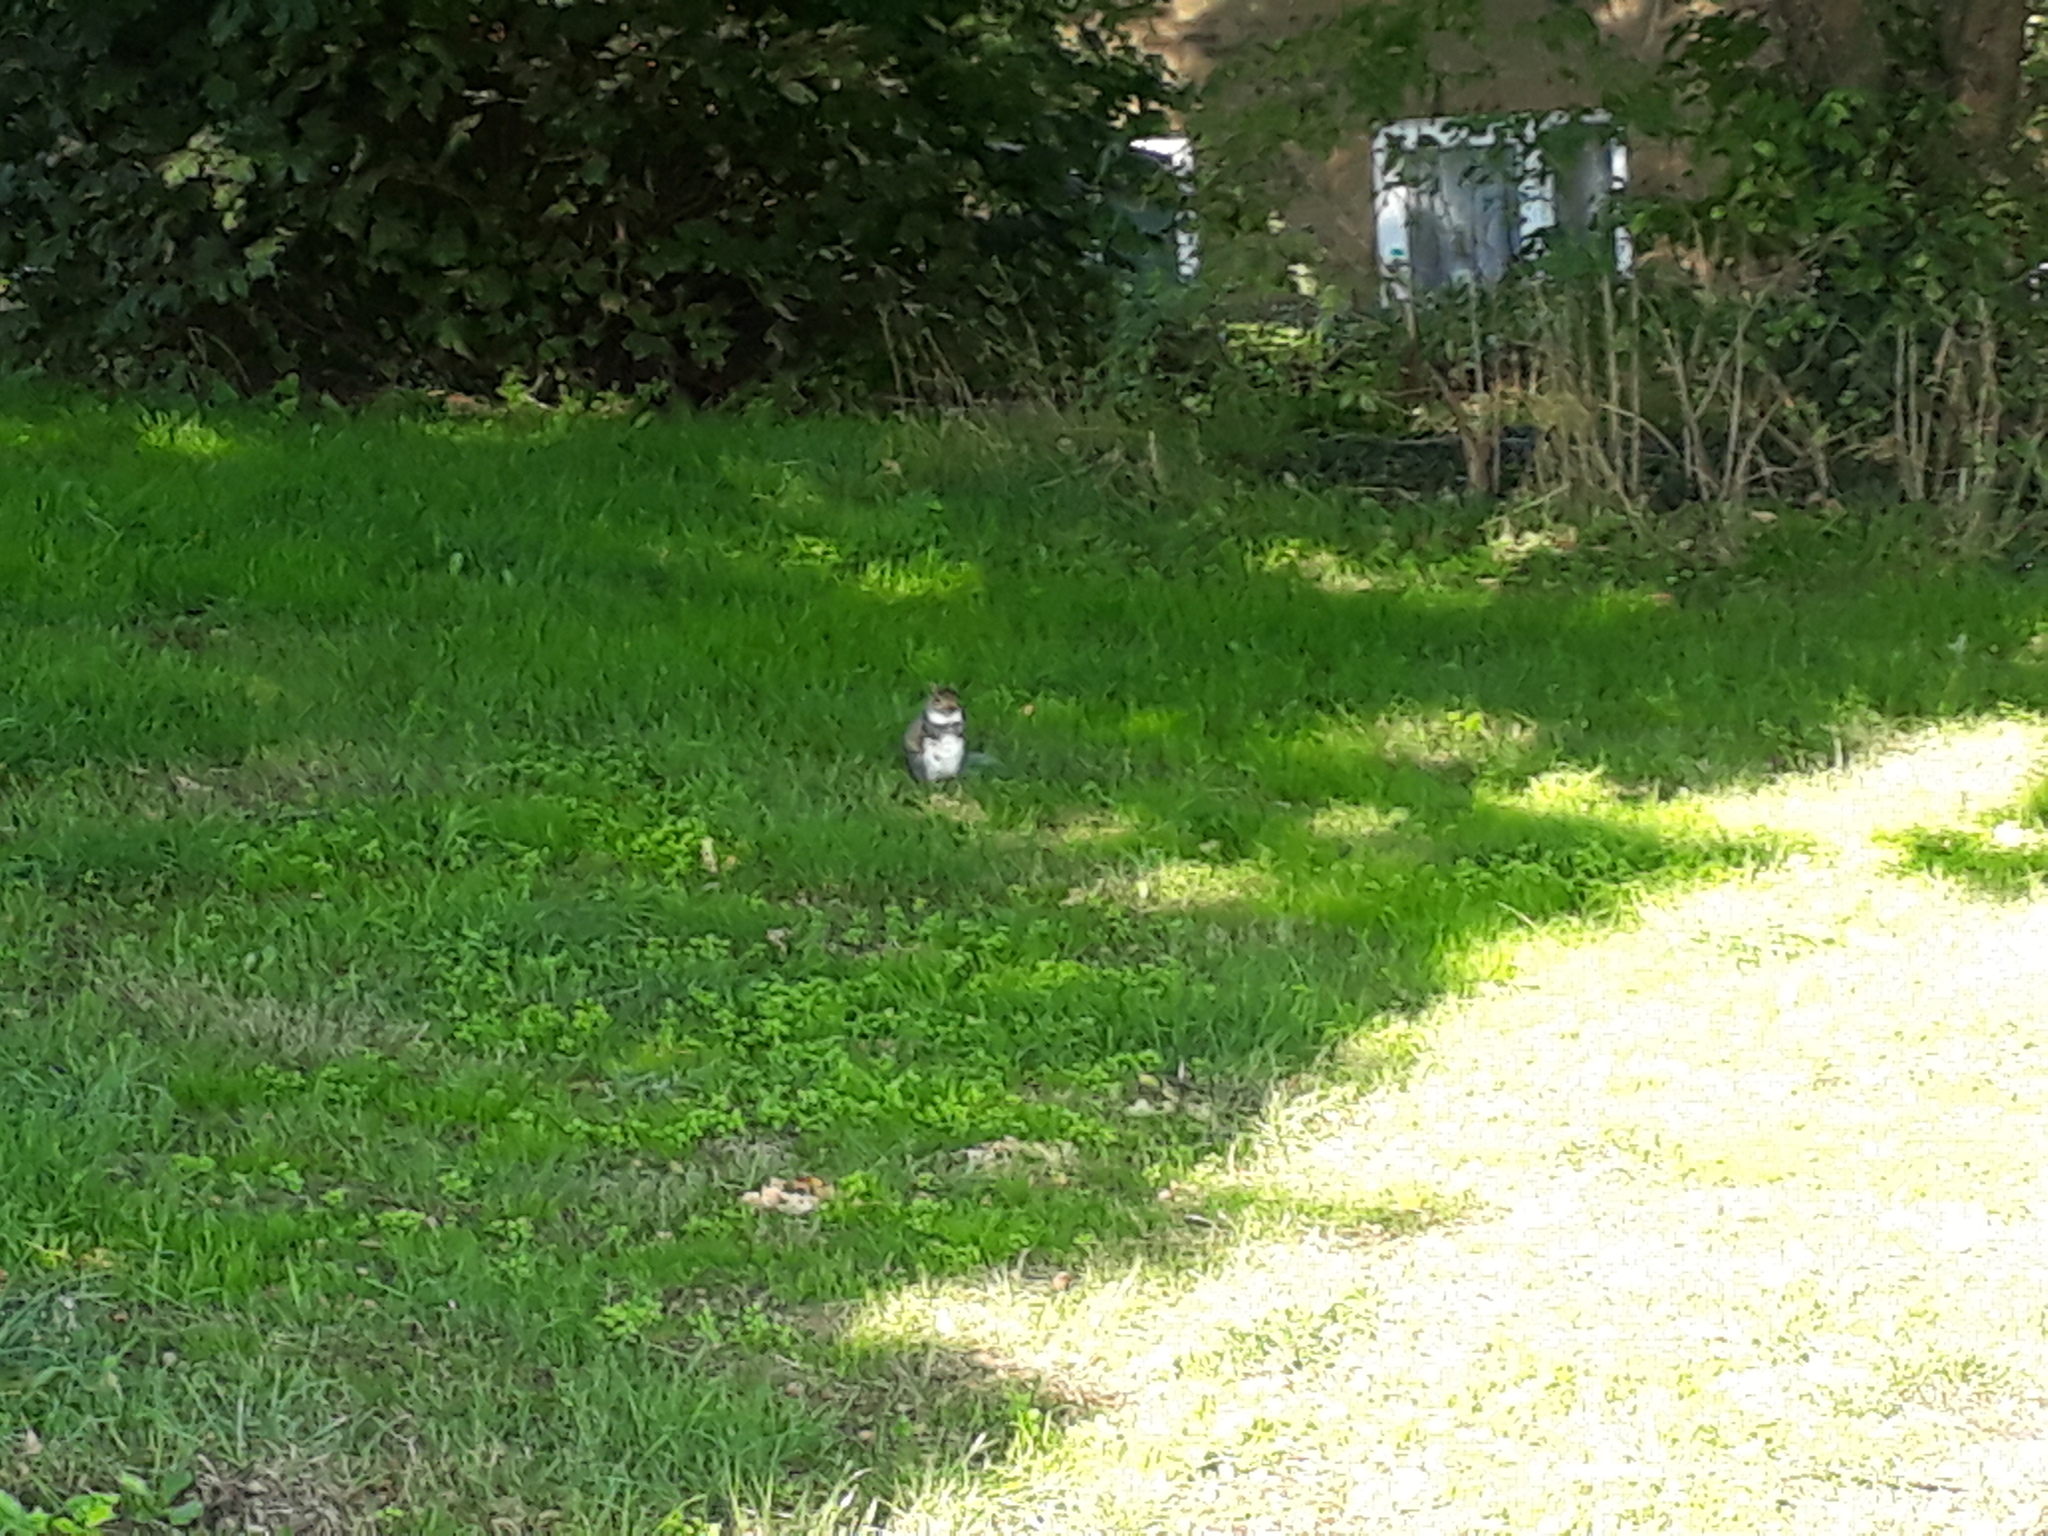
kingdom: Animalia
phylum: Chordata
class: Mammalia
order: Rodentia
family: Sciuridae
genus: Sciurus
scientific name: Sciurus carolinensis
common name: Eastern gray squirrel
